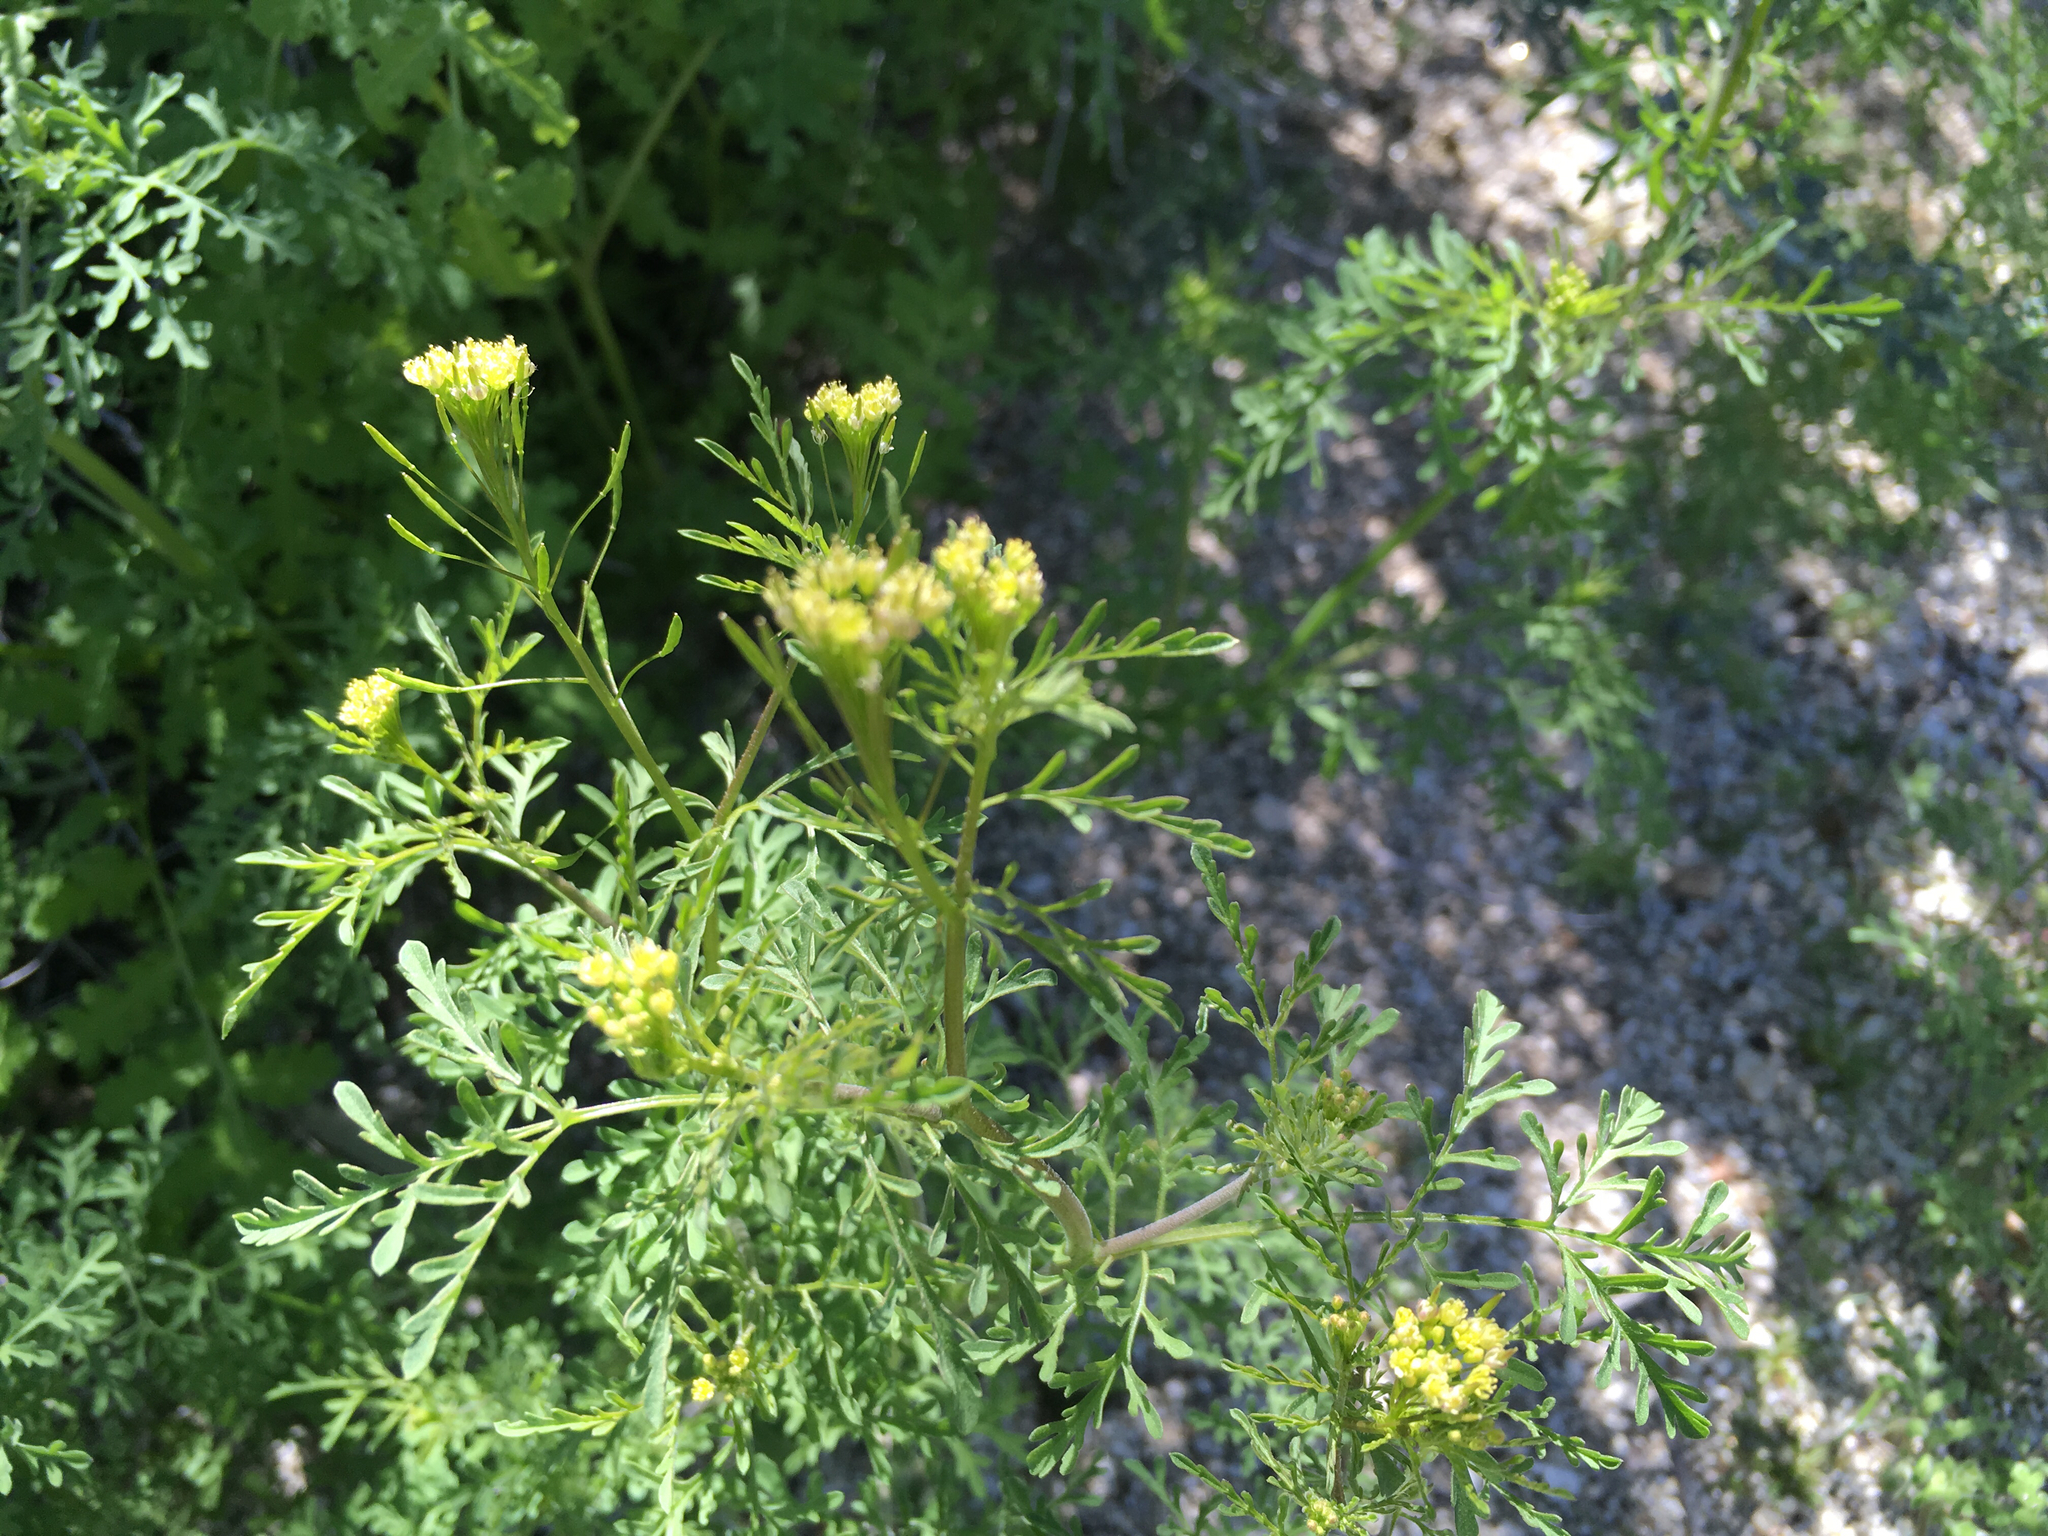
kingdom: Plantae
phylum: Tracheophyta
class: Magnoliopsida
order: Brassicales
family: Brassicaceae
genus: Descurainia
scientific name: Descurainia pinnata
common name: Western tansy mustard
